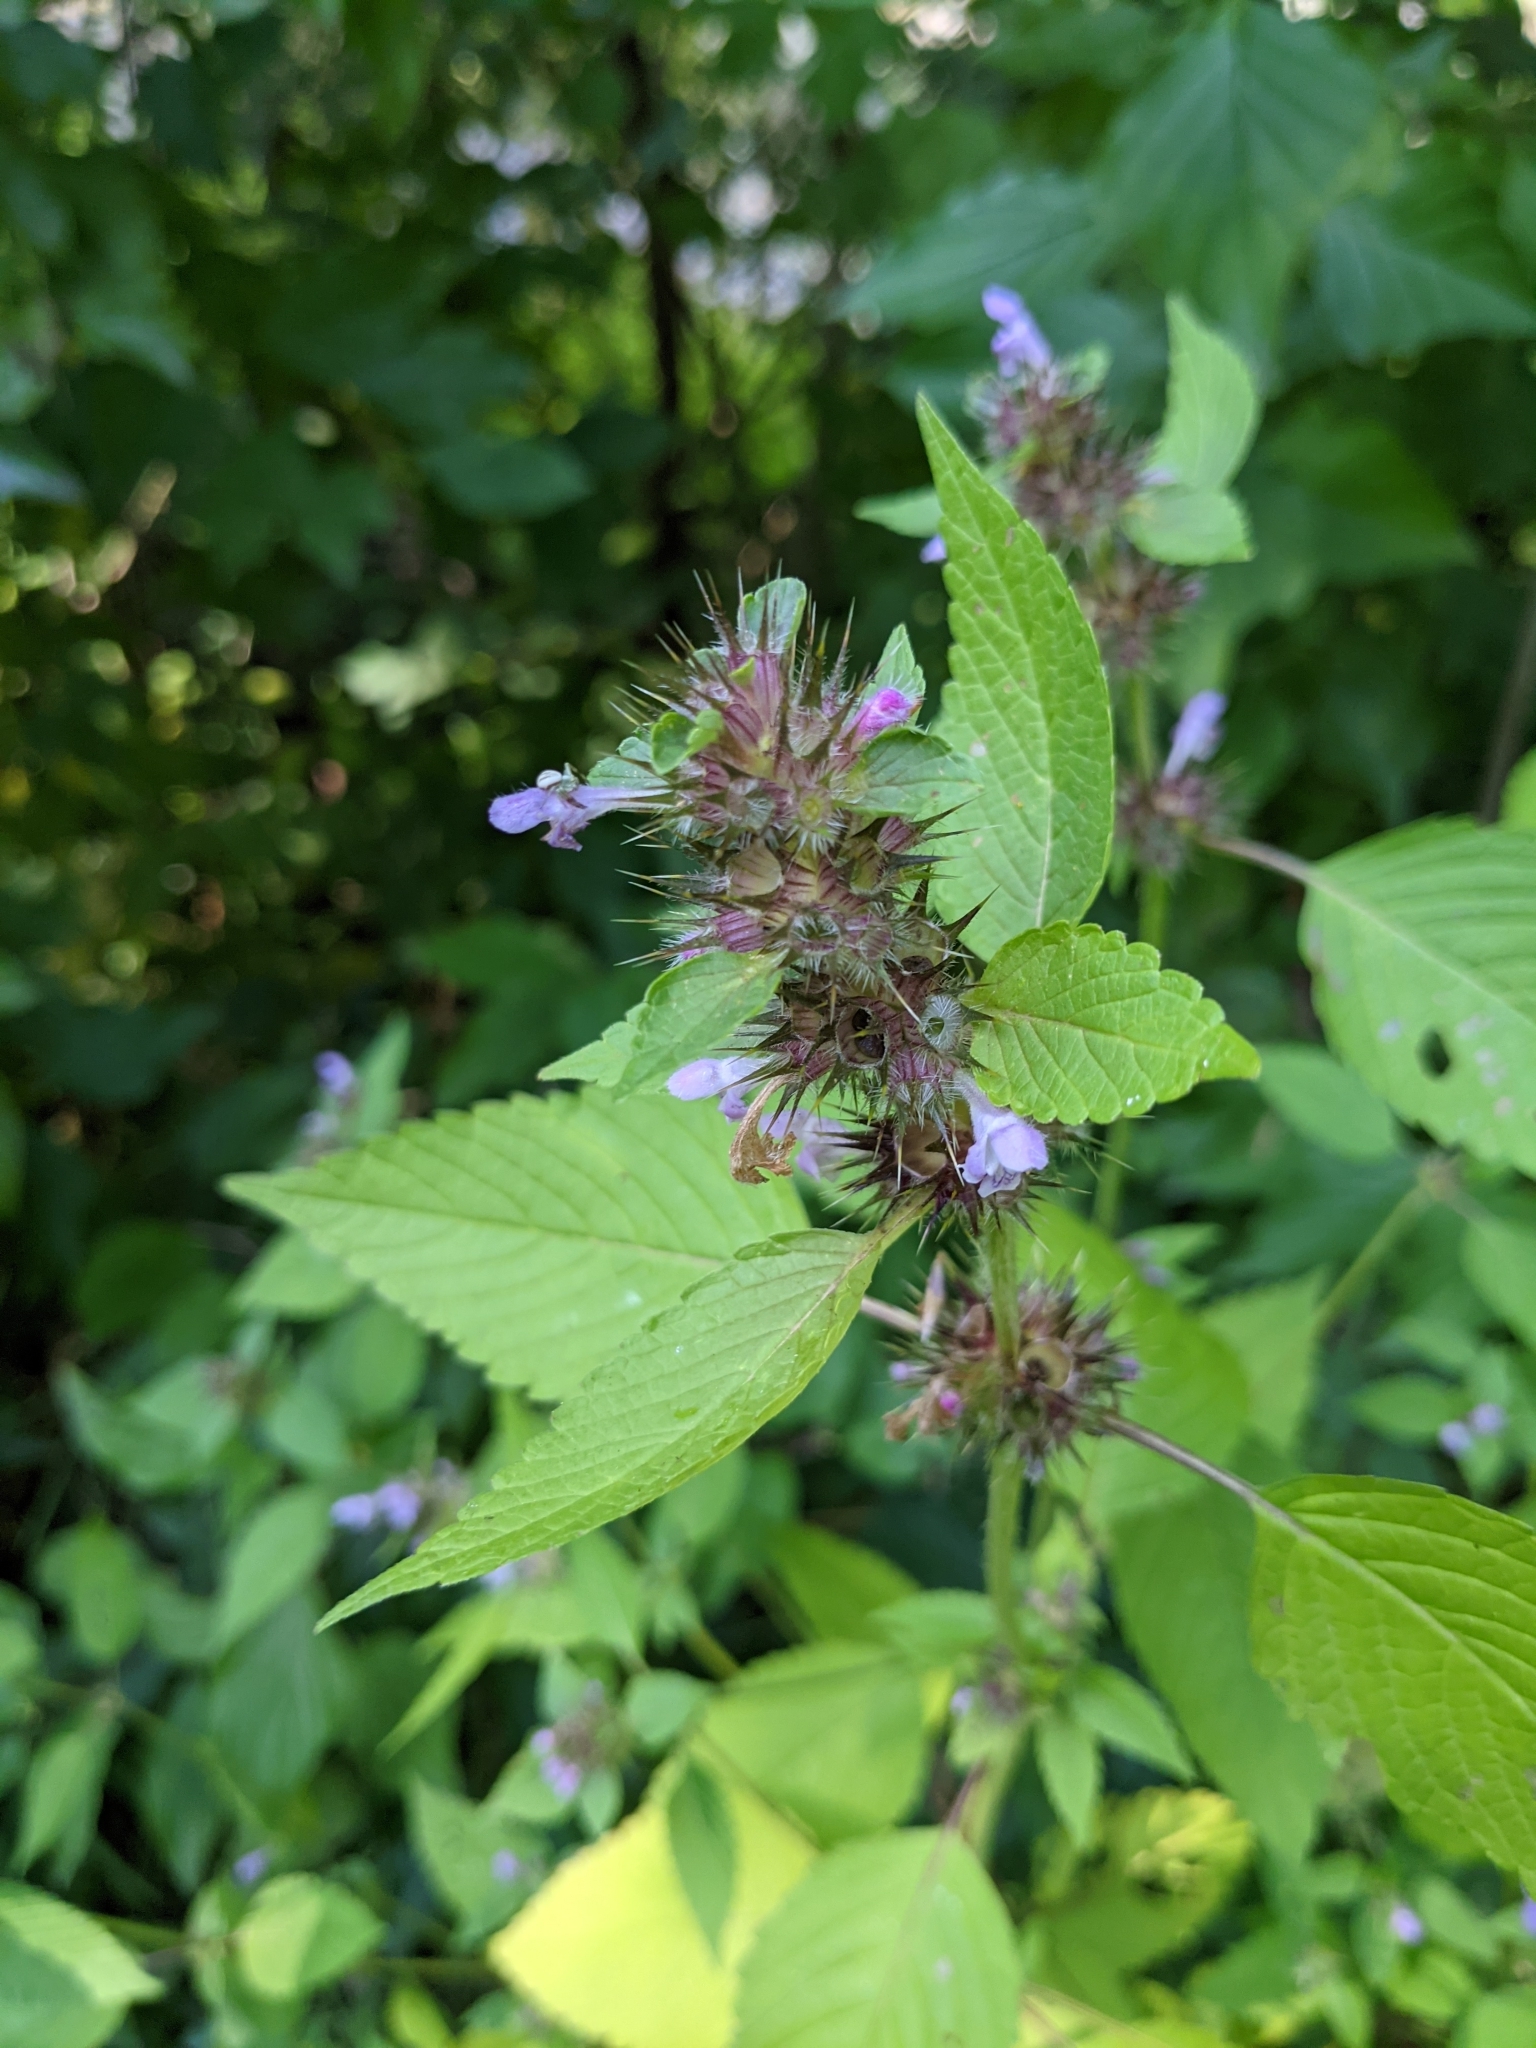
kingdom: Plantae
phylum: Tracheophyta
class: Magnoliopsida
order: Lamiales
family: Lamiaceae
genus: Galeopsis
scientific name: Galeopsis tetrahit
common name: Common hemp-nettle
